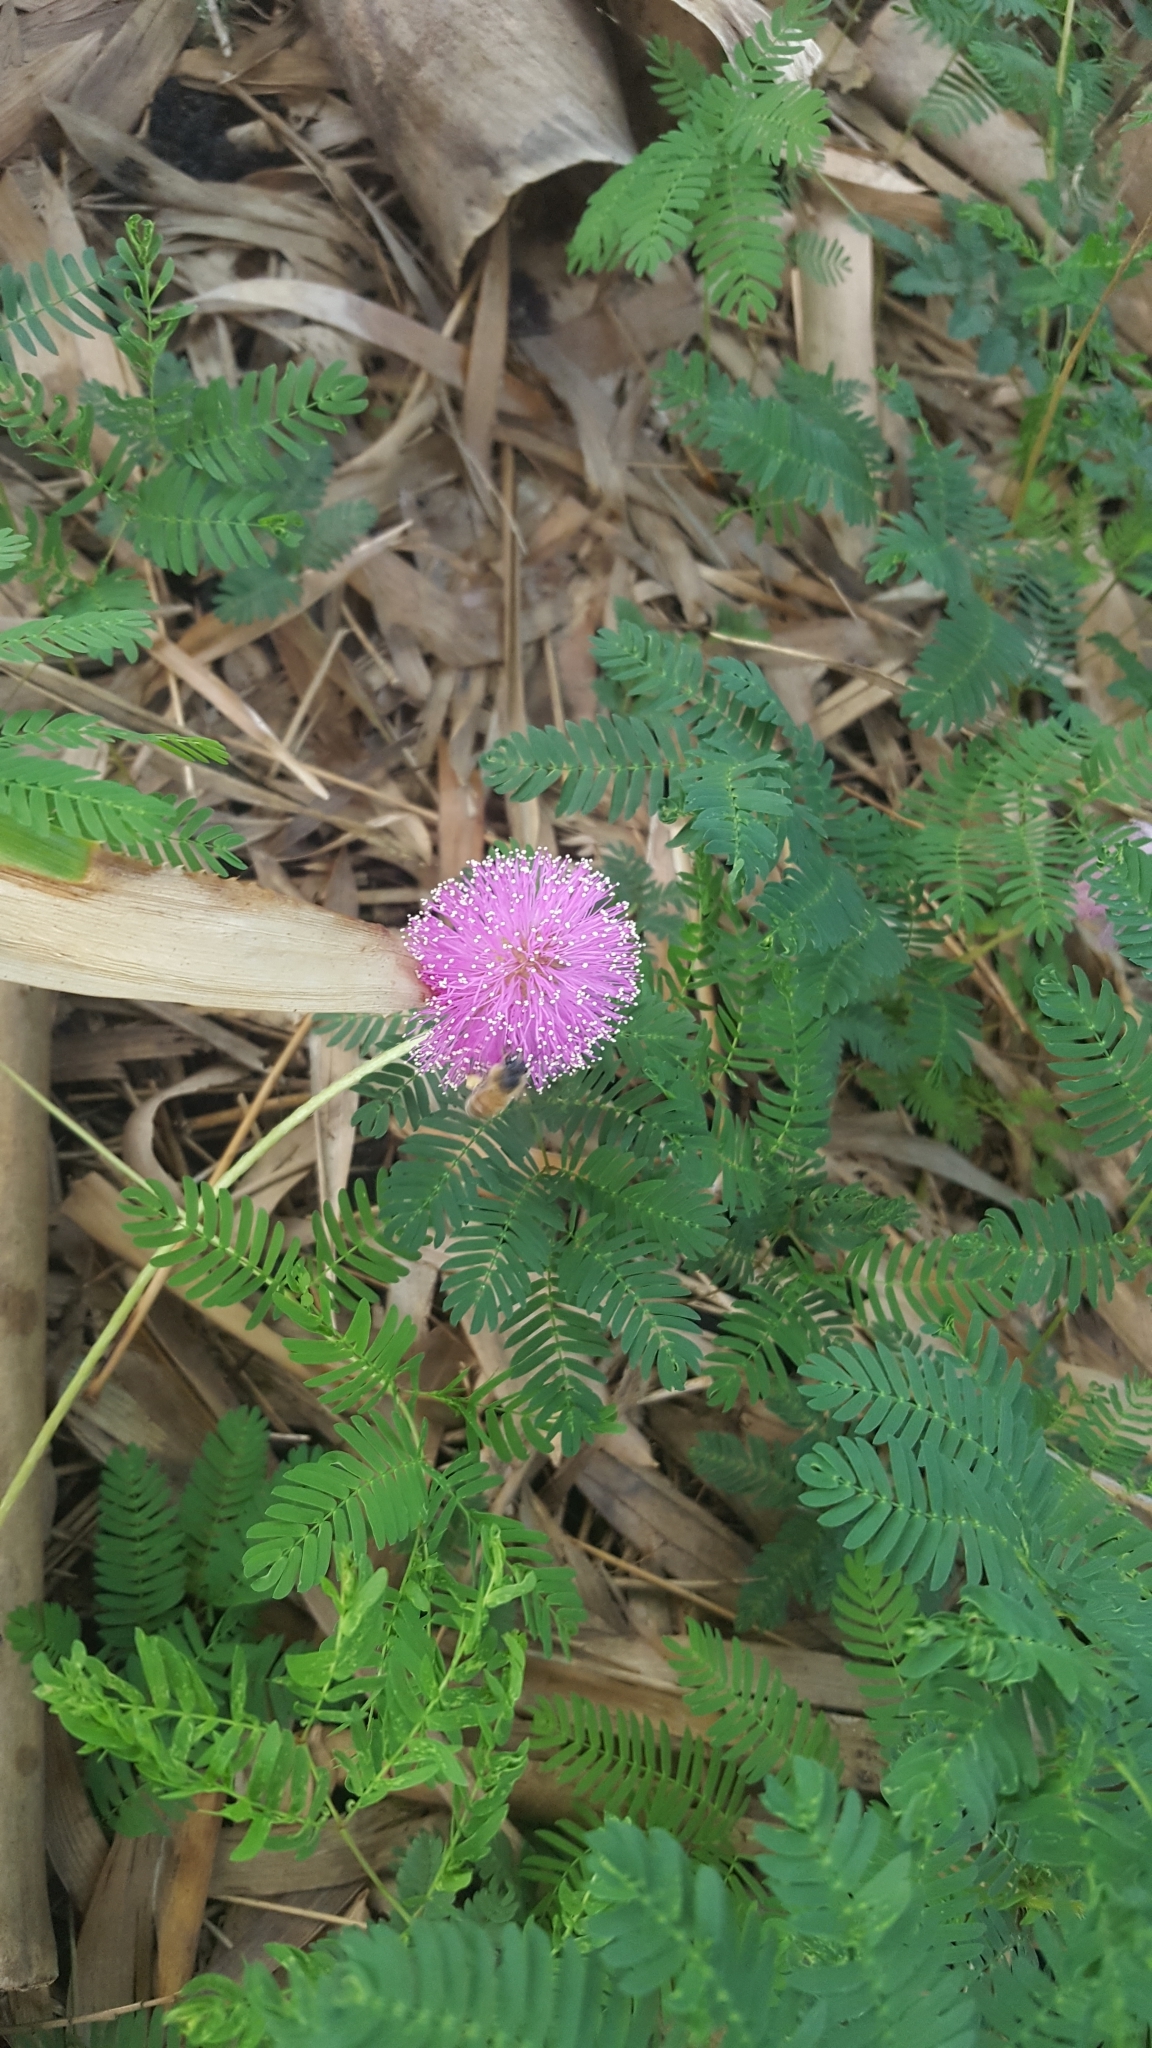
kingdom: Plantae
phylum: Tracheophyta
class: Magnoliopsida
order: Fabales
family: Fabaceae
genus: Mimosa
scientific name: Mimosa strigillosa
